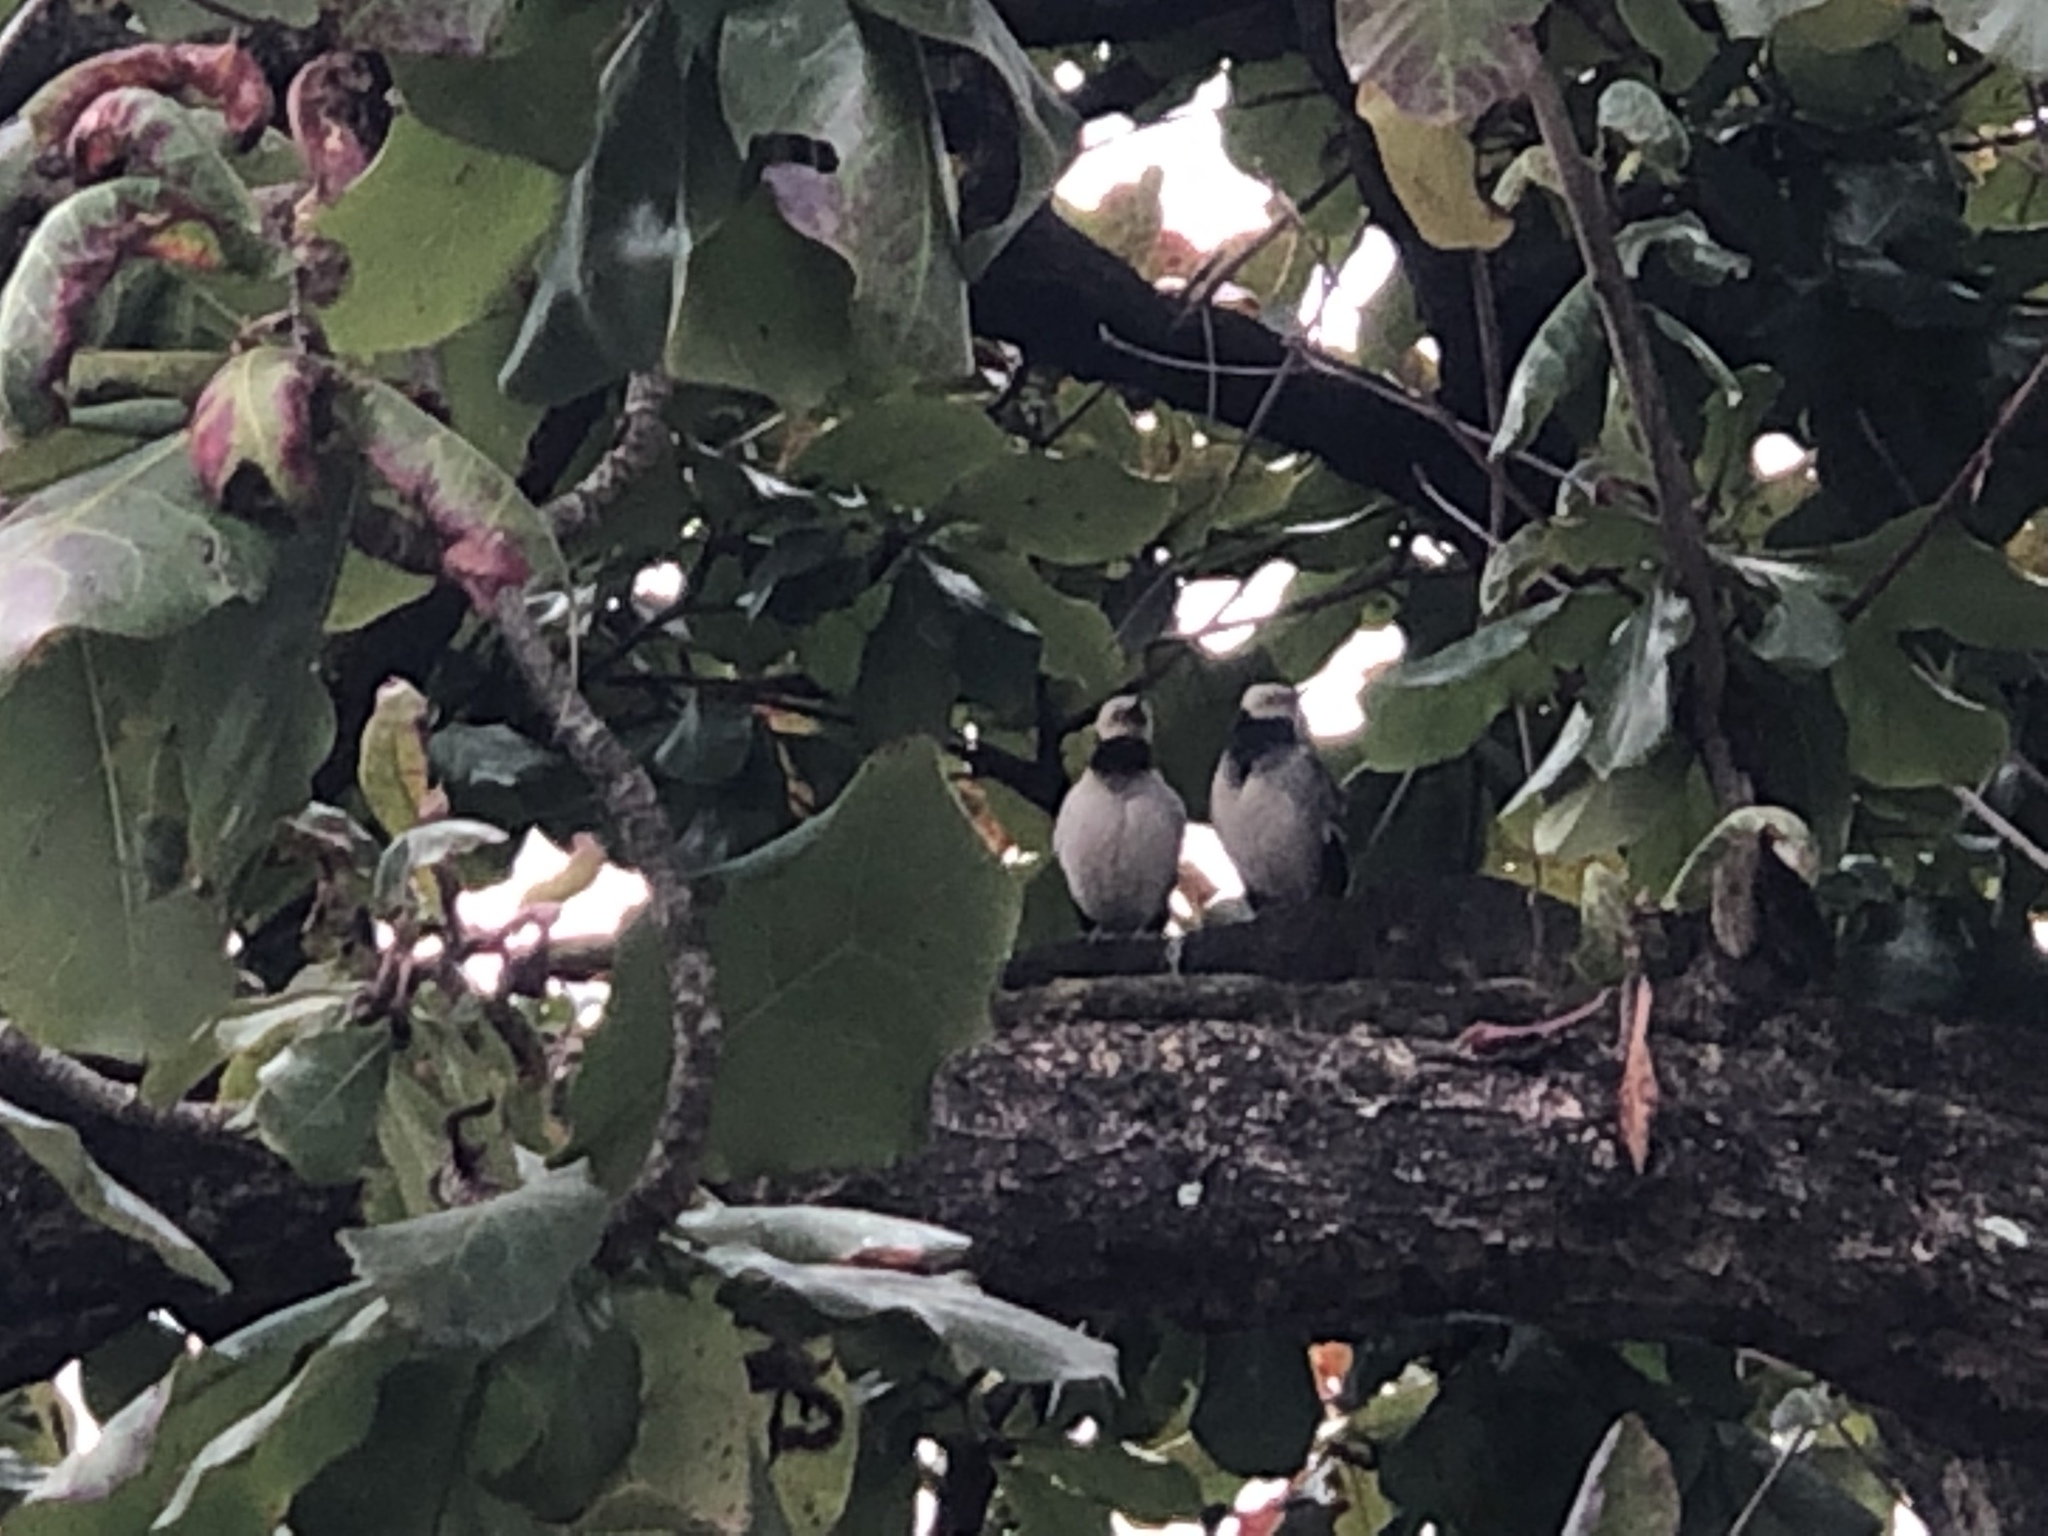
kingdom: Animalia
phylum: Chordata
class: Aves
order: Passeriformes
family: Sturnidae
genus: Gracupica
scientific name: Gracupica nigricollis
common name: Black-collared starling
